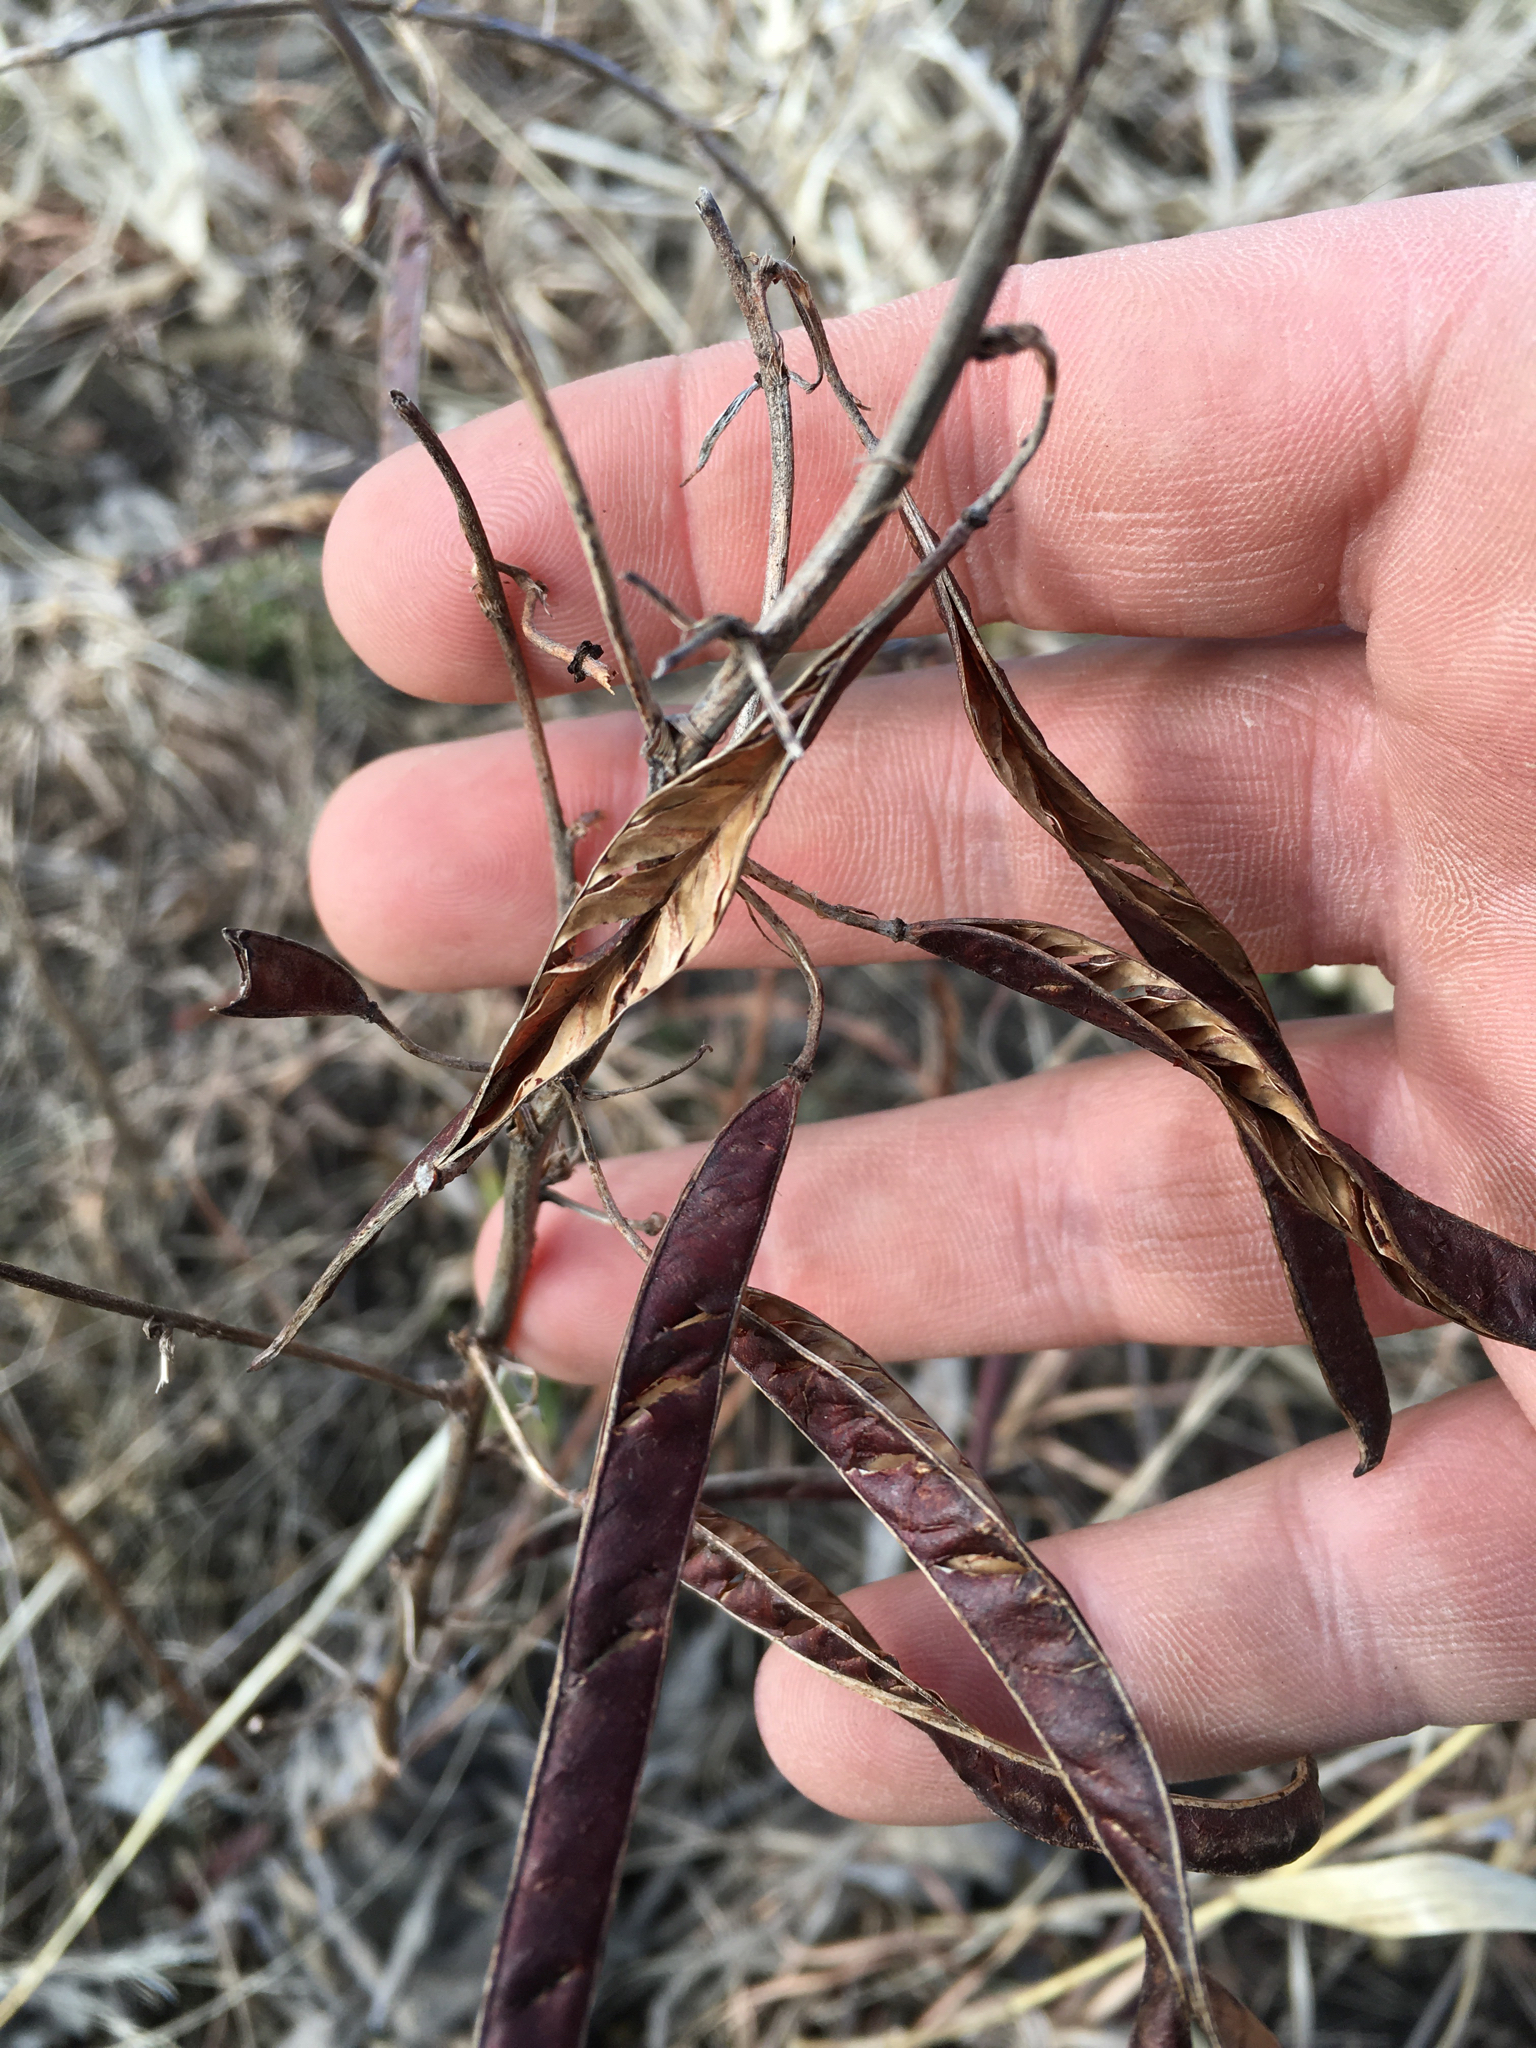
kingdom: Plantae
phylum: Tracheophyta
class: Magnoliopsida
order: Fabales
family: Fabaceae
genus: Chamaecrista
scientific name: Chamaecrista fasciculata
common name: Golden cassia
